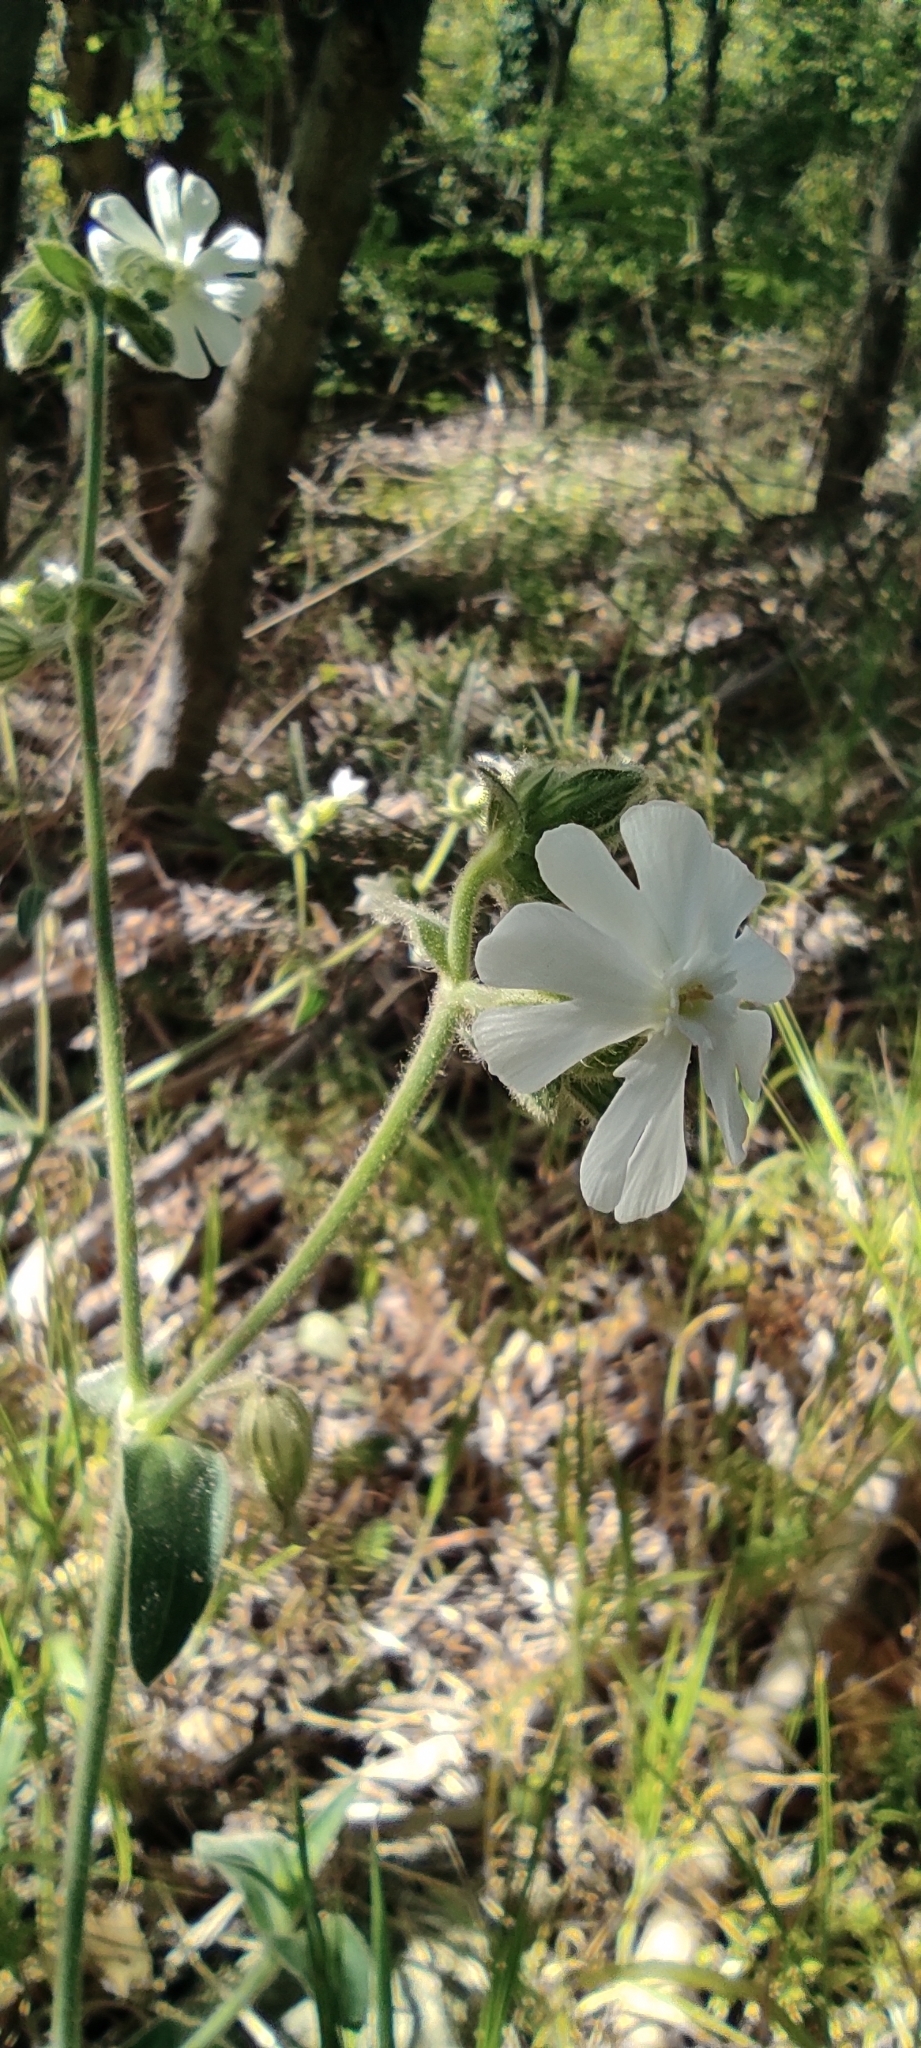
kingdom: Plantae
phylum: Tracheophyta
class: Magnoliopsida
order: Caryophyllales
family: Caryophyllaceae
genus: Silene
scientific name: Silene latifolia
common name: White campion
